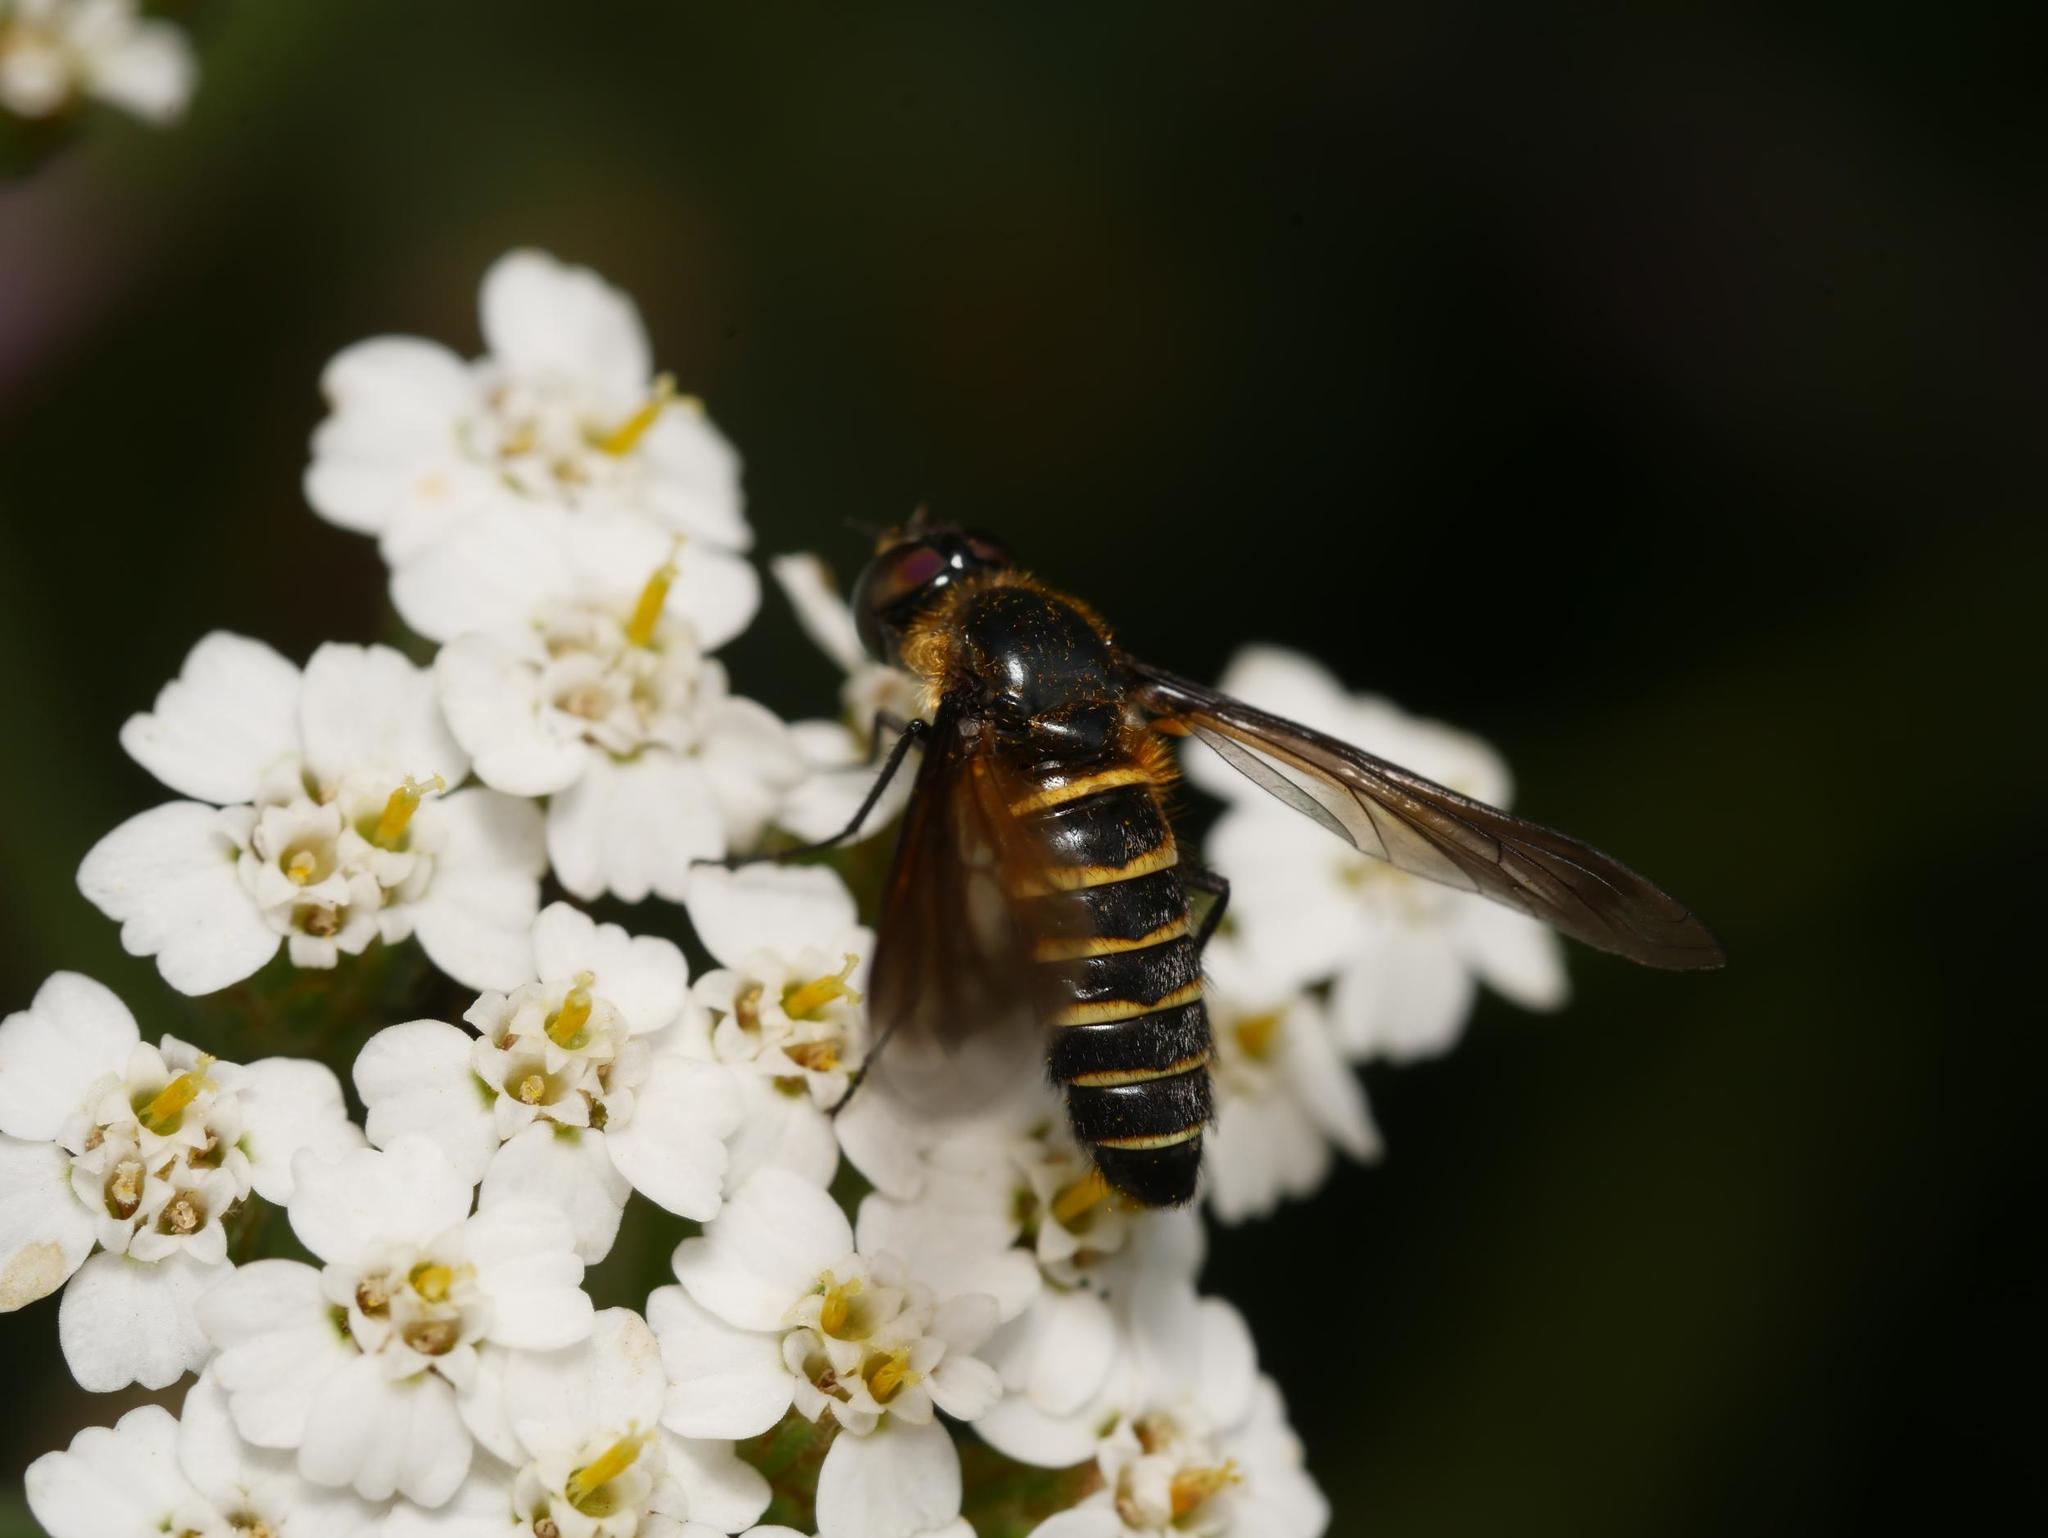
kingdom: Animalia
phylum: Arthropoda
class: Insecta
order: Diptera
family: Bombyliidae
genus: Lomatia
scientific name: Lomatia lateralis
